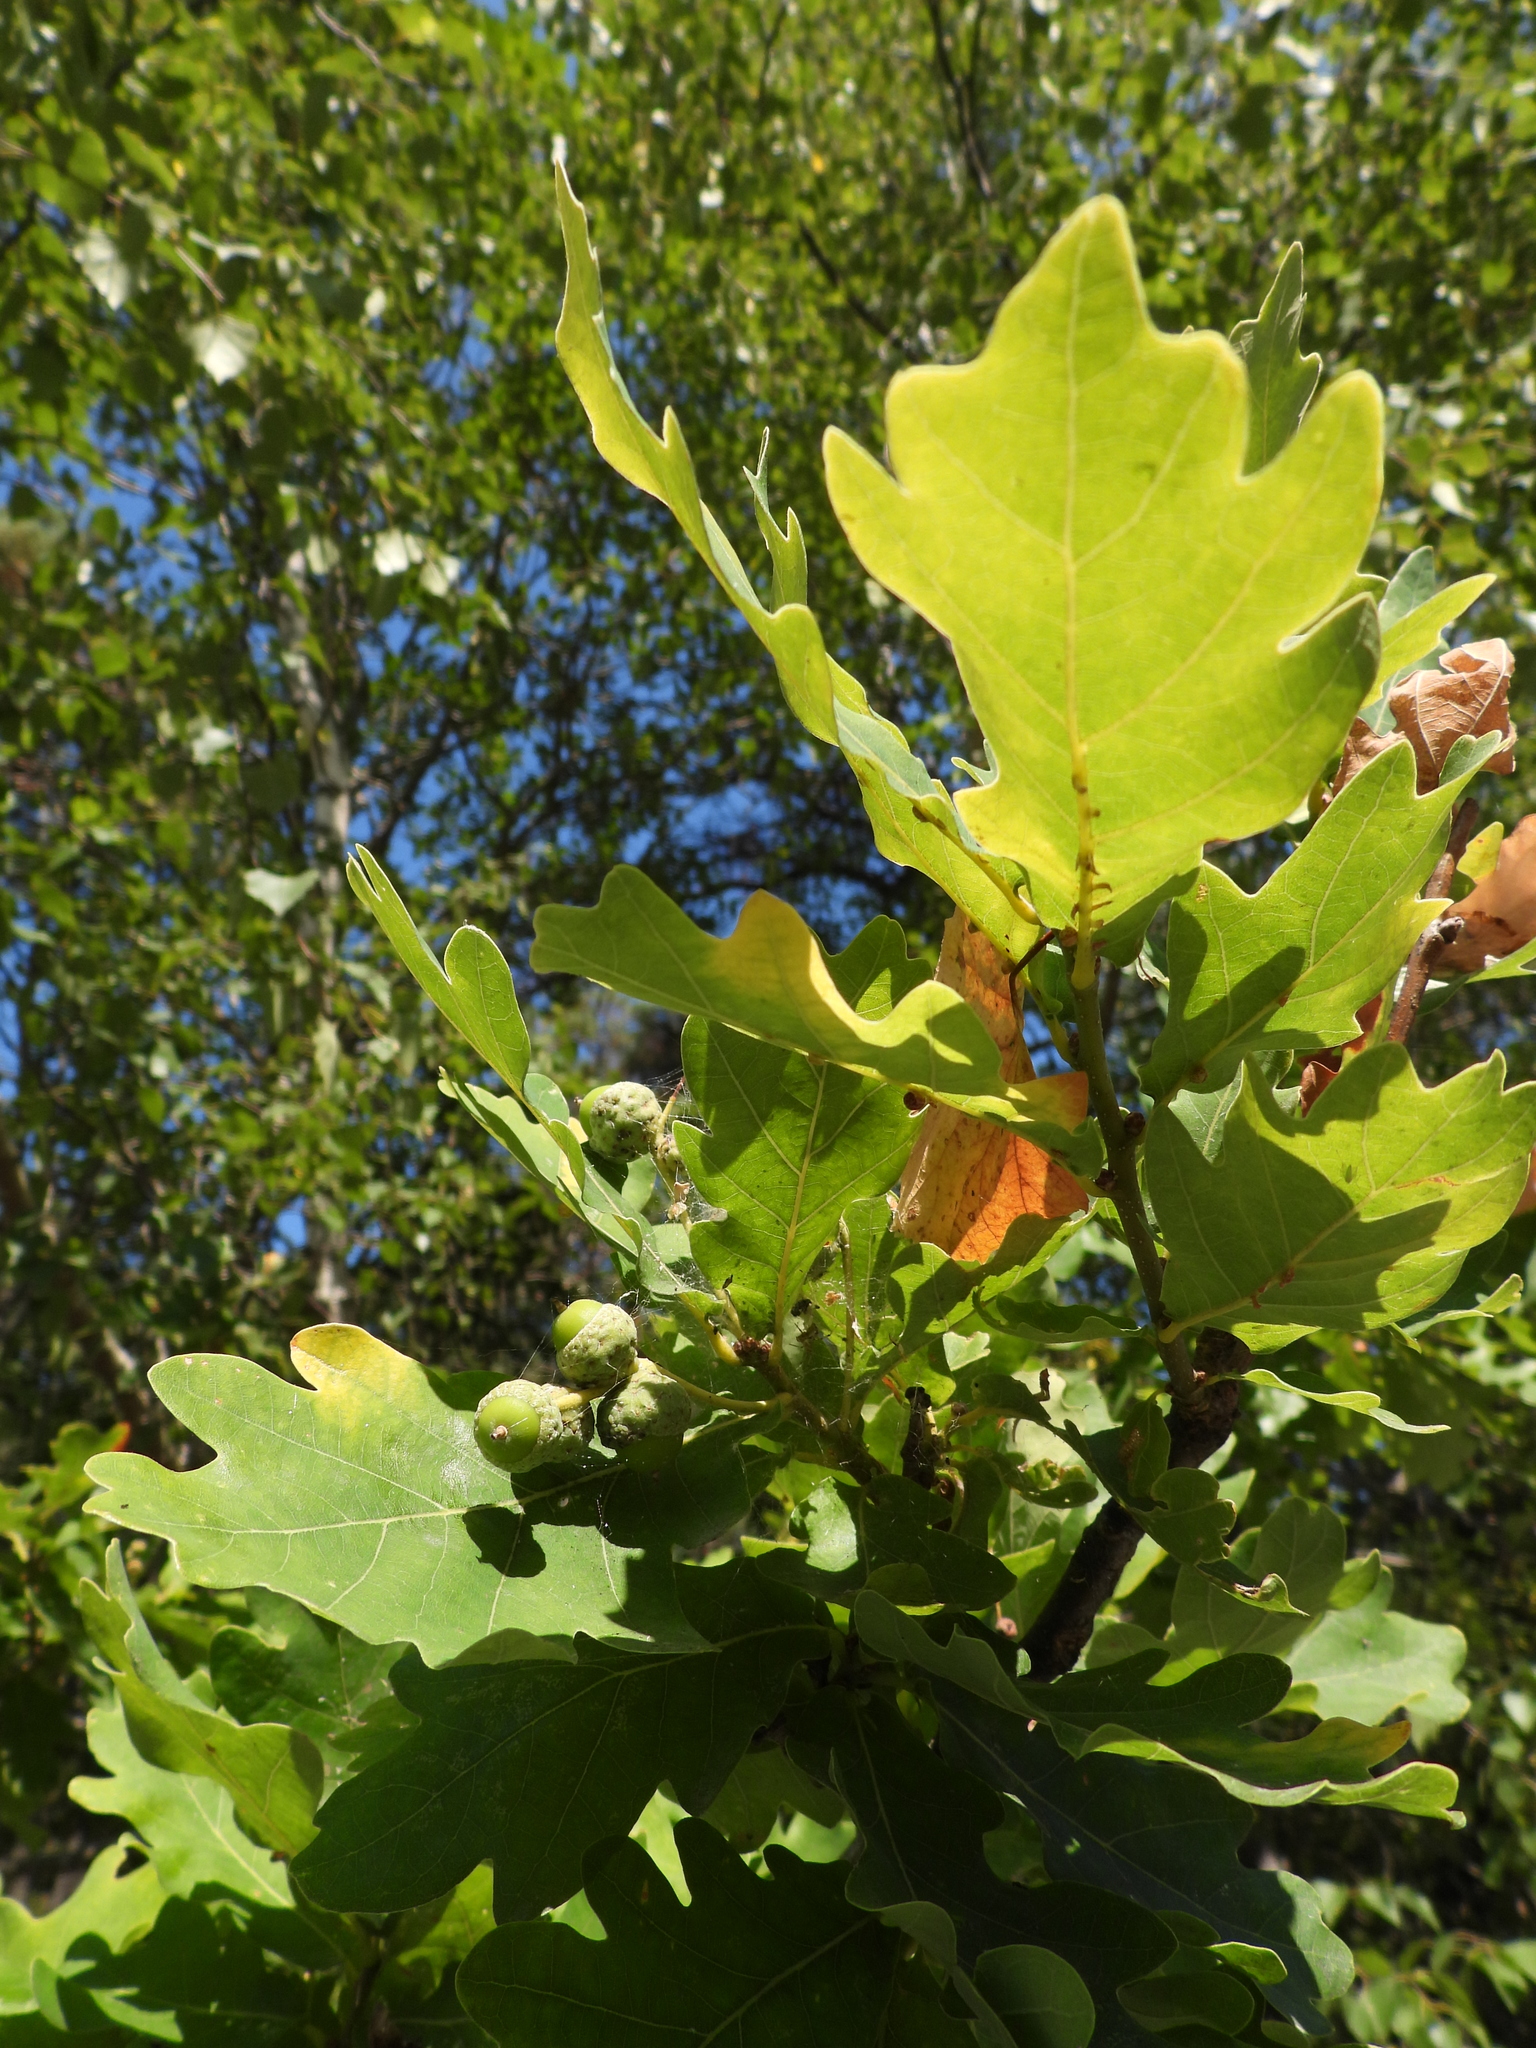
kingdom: Plantae
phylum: Tracheophyta
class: Magnoliopsida
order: Fagales
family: Fagaceae
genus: Quercus
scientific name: Quercus robur
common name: Pedunculate oak
